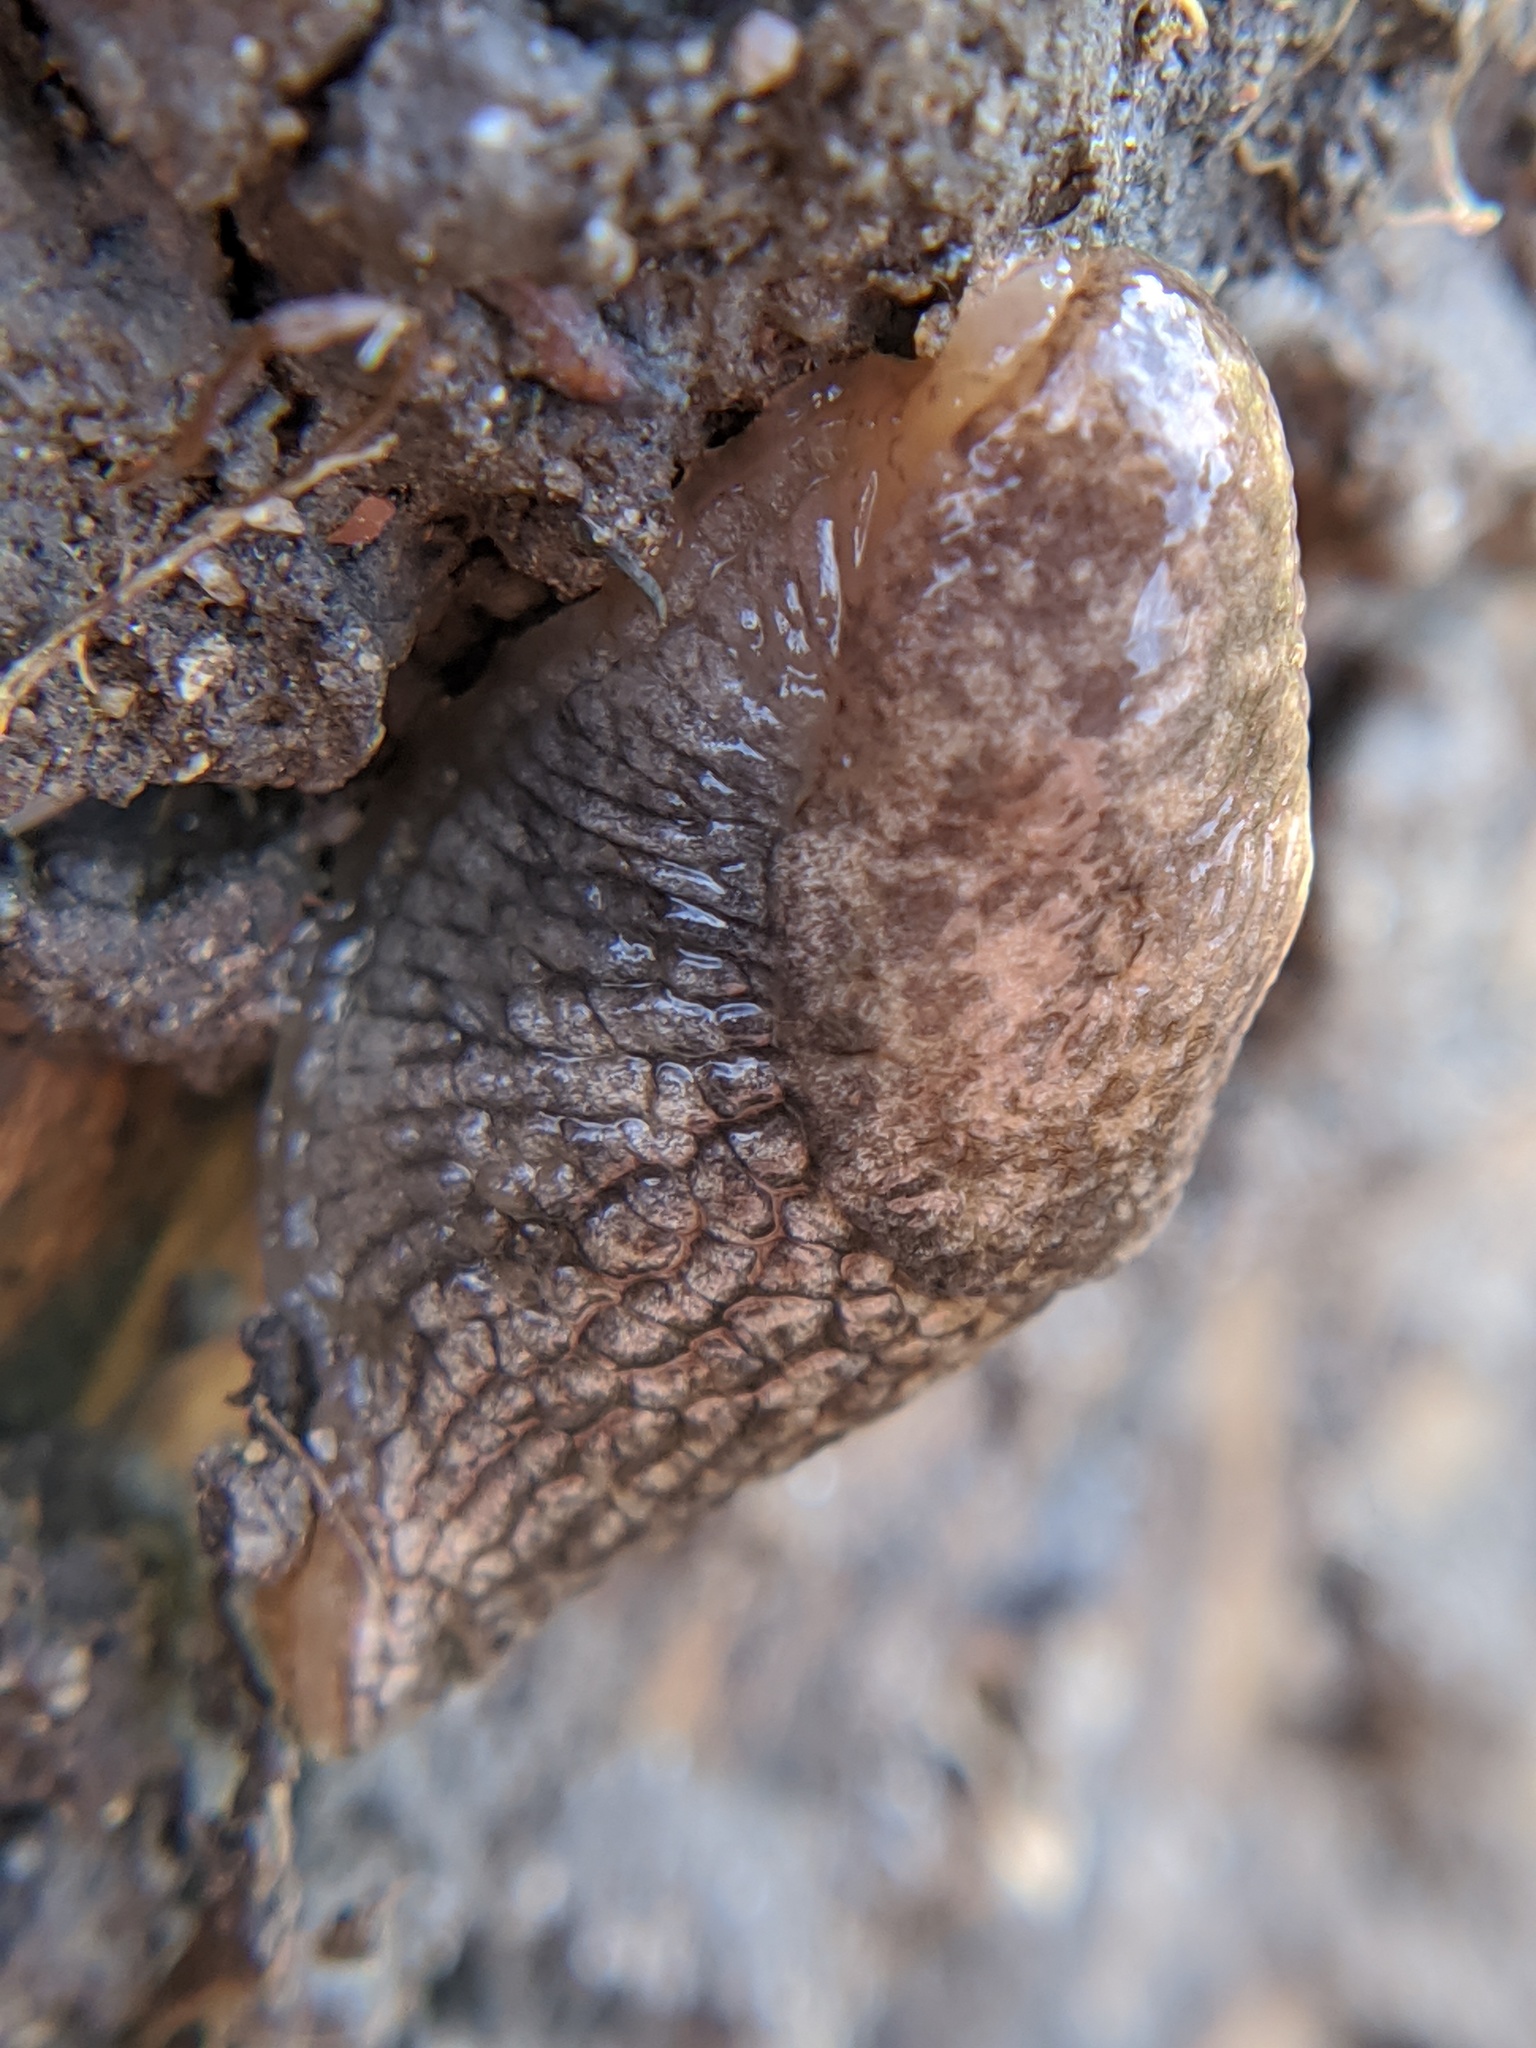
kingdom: Animalia
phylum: Mollusca
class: Gastropoda
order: Stylommatophora
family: Agriolimacidae
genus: Deroceras
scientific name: Deroceras reticulatum
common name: Gray field slug
